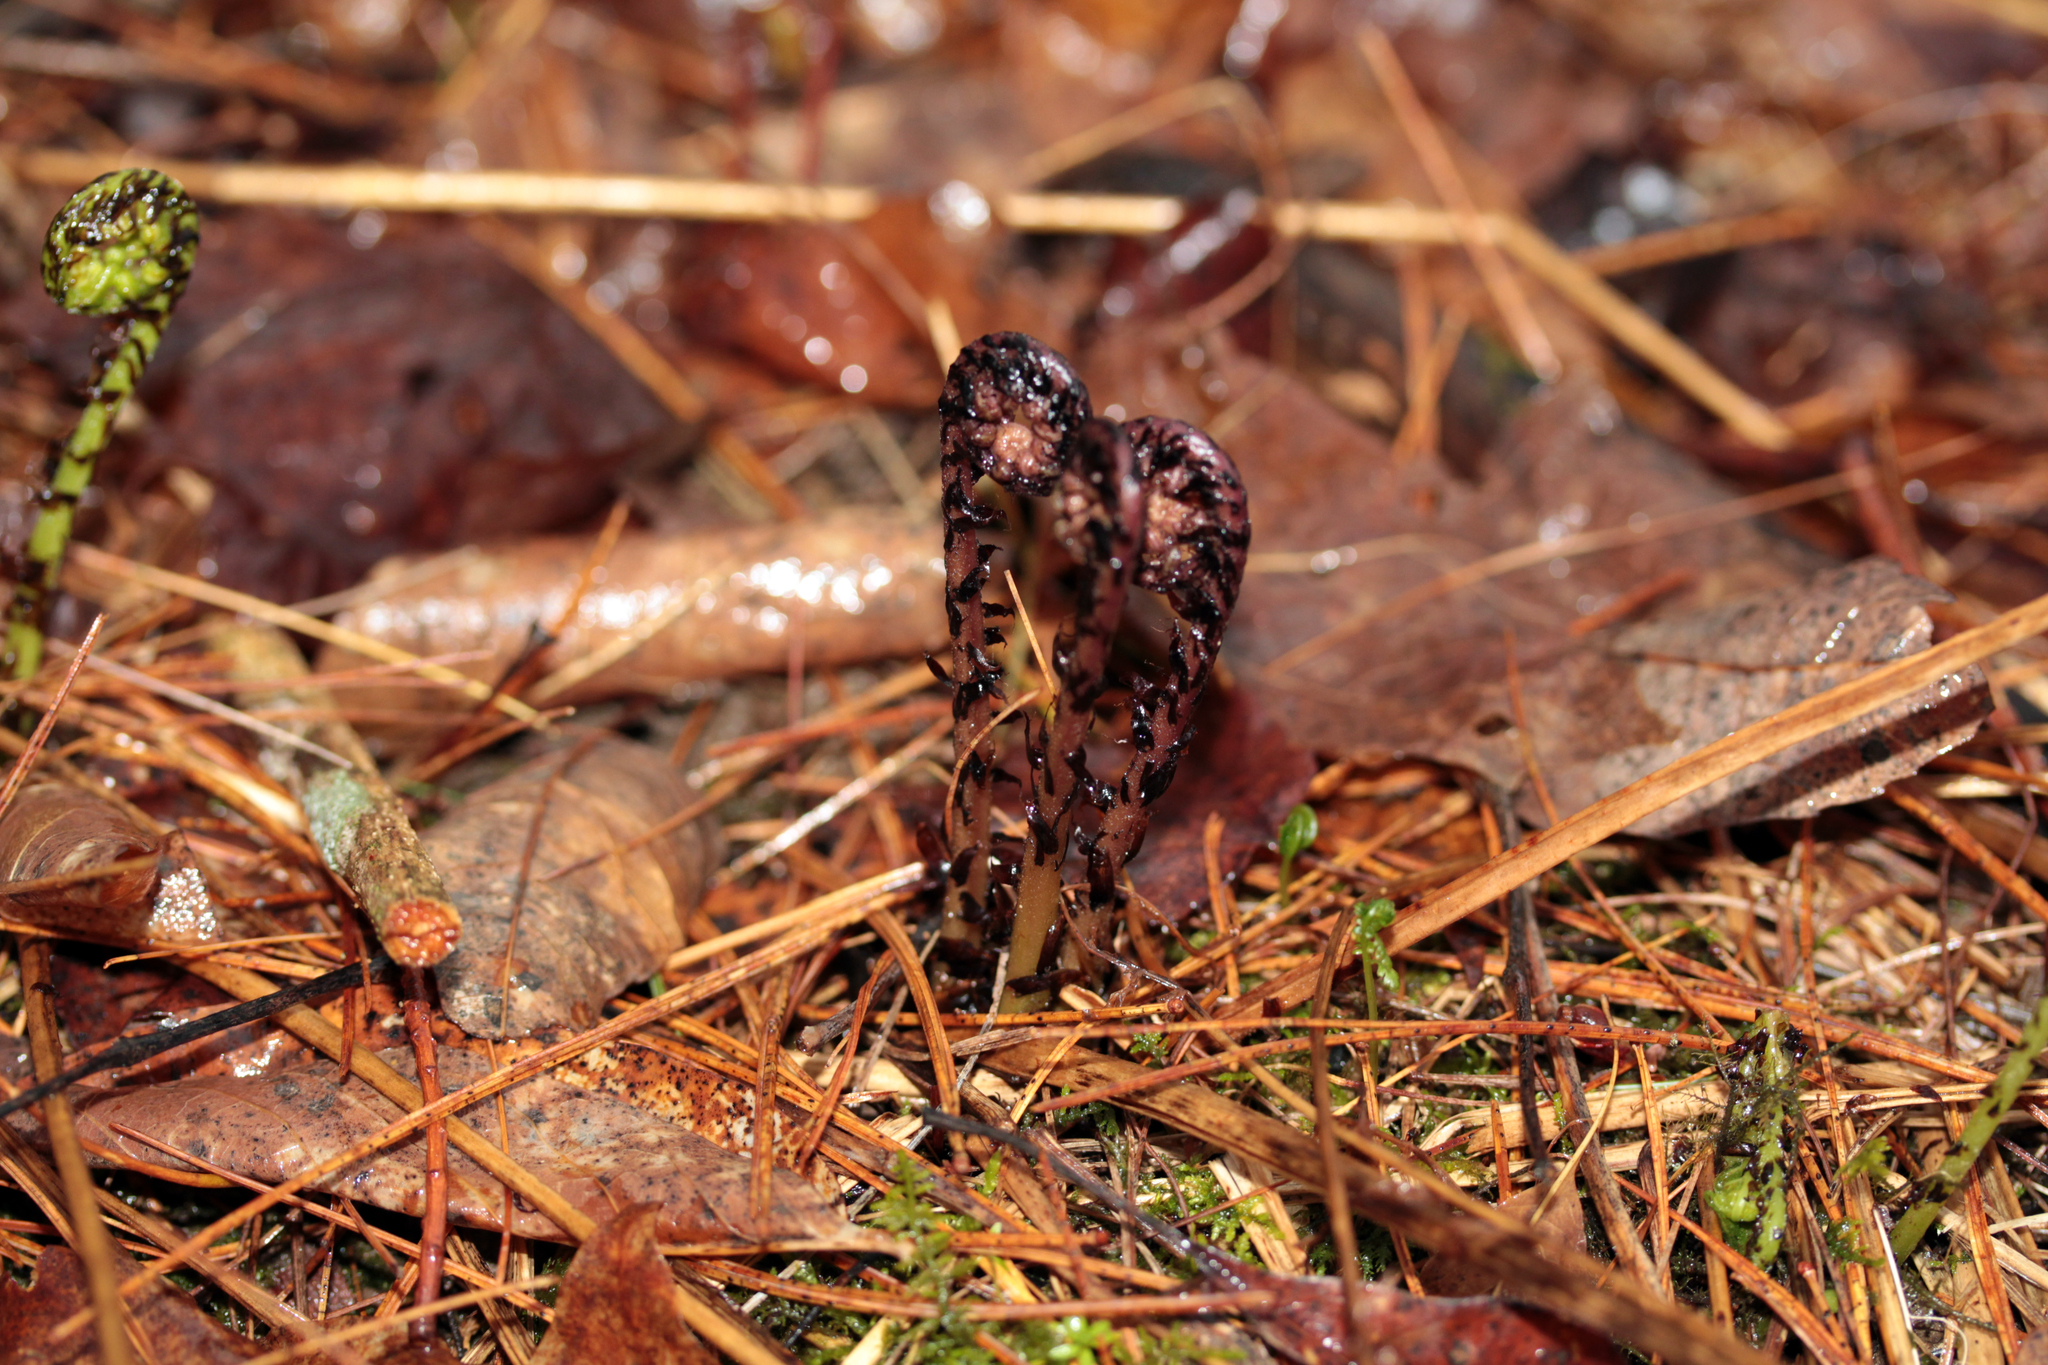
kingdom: Plantae
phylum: Tracheophyta
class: Polypodiopsida
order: Polypodiales
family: Athyriaceae
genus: Athyrium
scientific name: Athyrium angustum
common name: Northern lady fern
